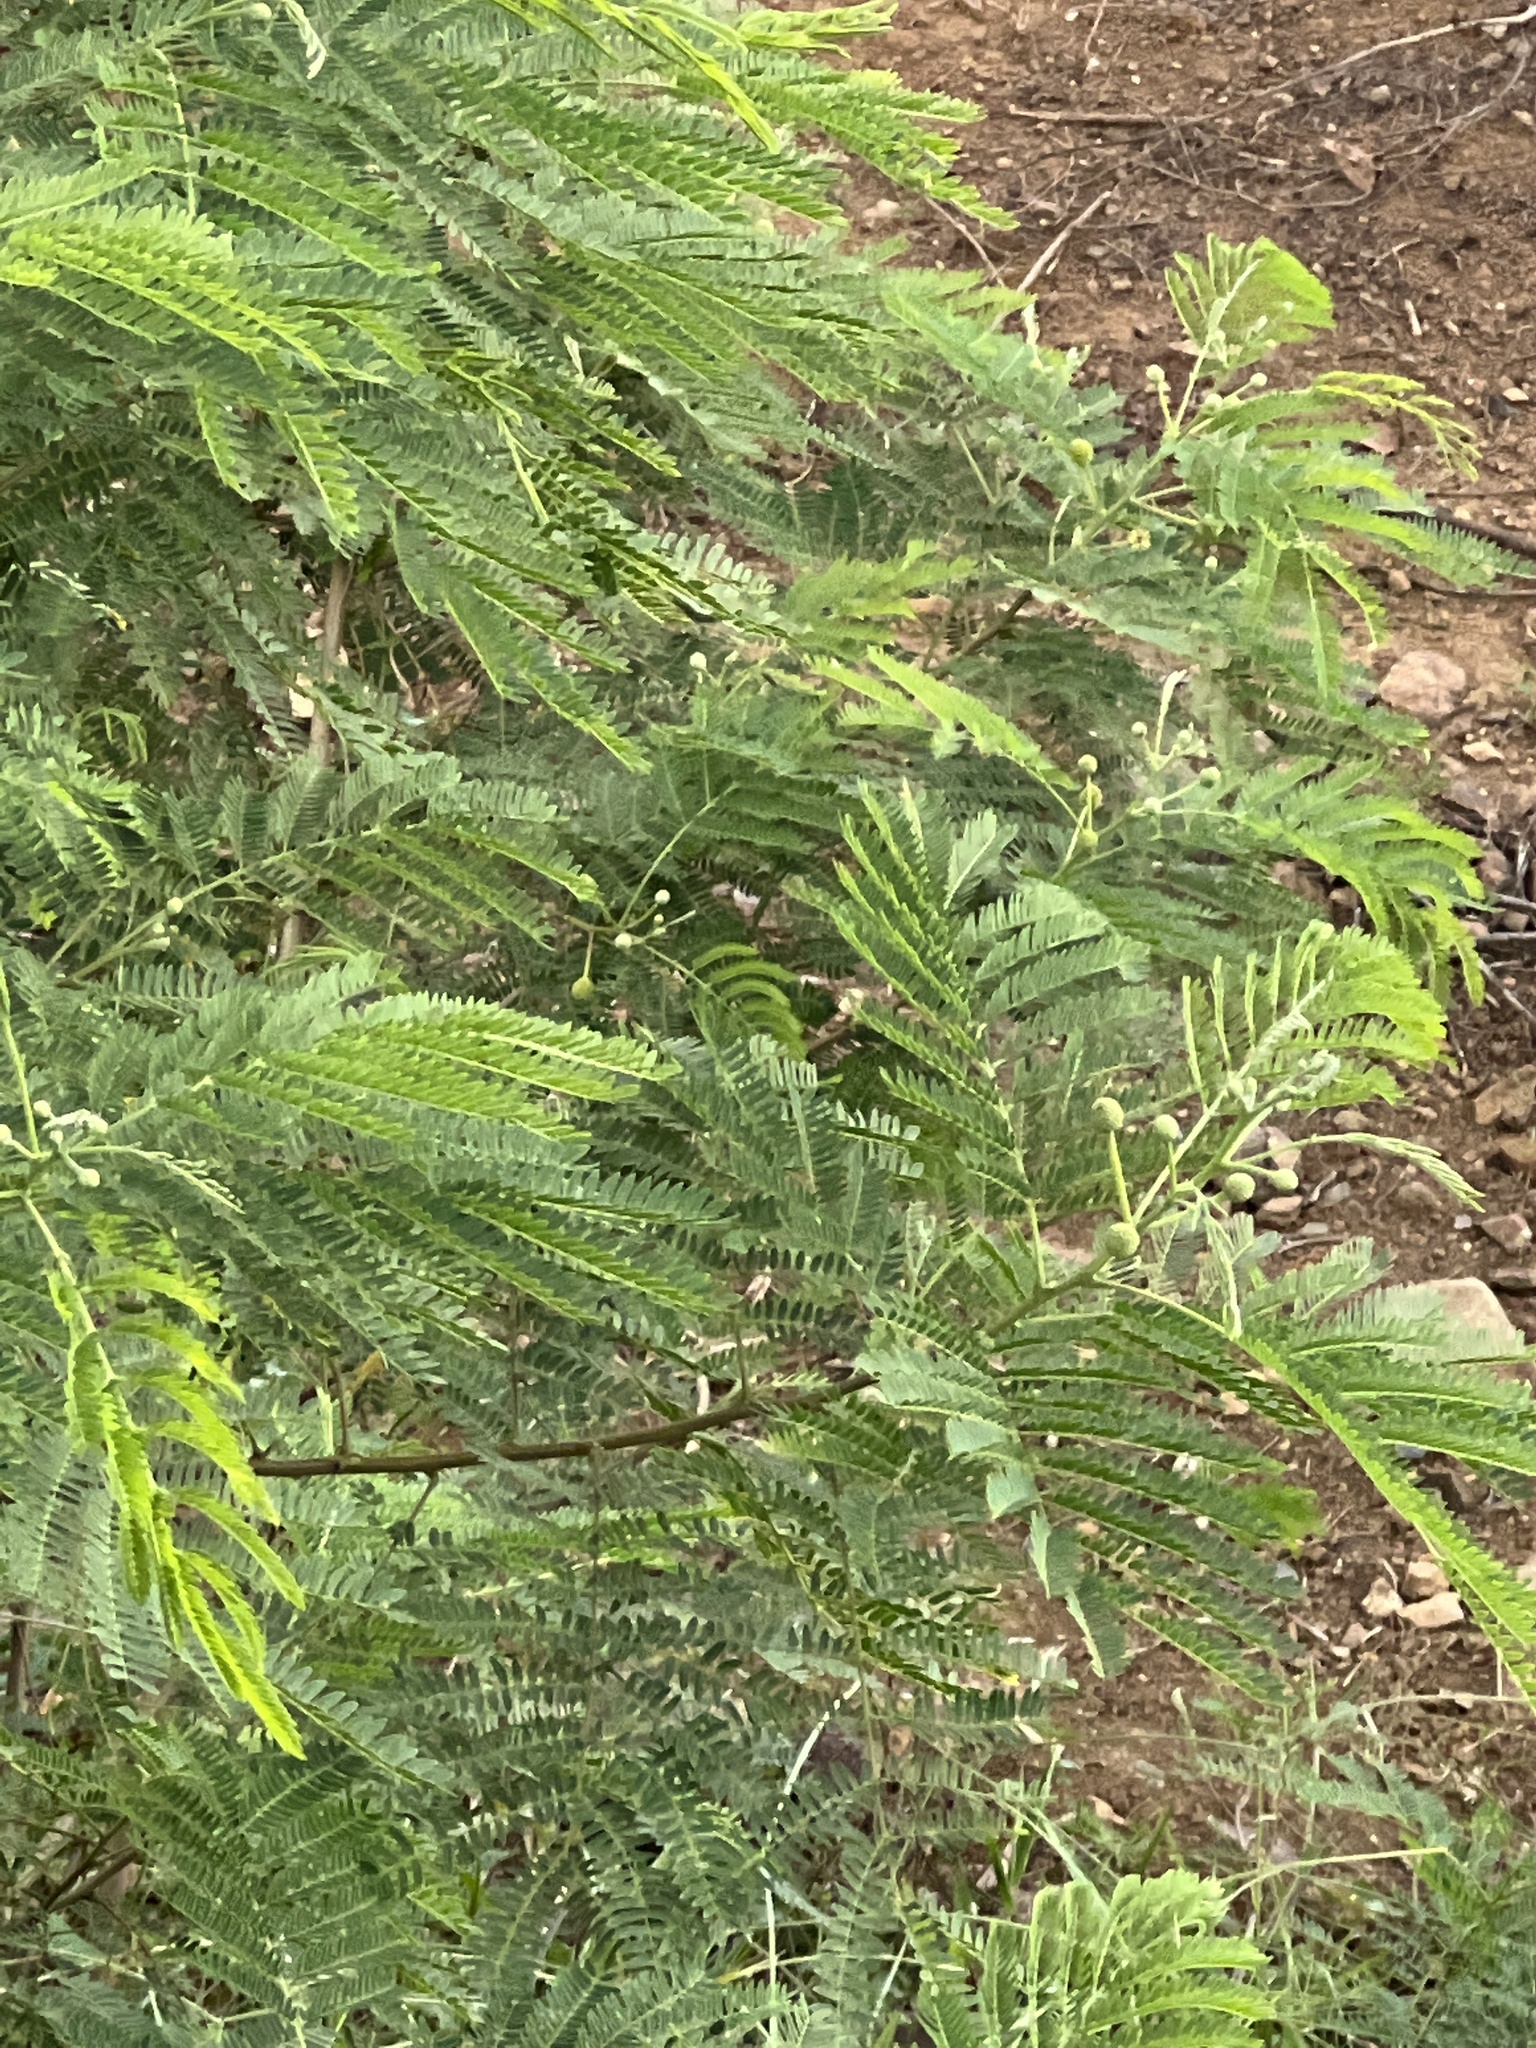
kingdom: Plantae
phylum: Tracheophyta
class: Magnoliopsida
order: Fabales
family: Fabaceae
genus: Leucaena
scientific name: Leucaena leucocephala
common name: White leadtree
